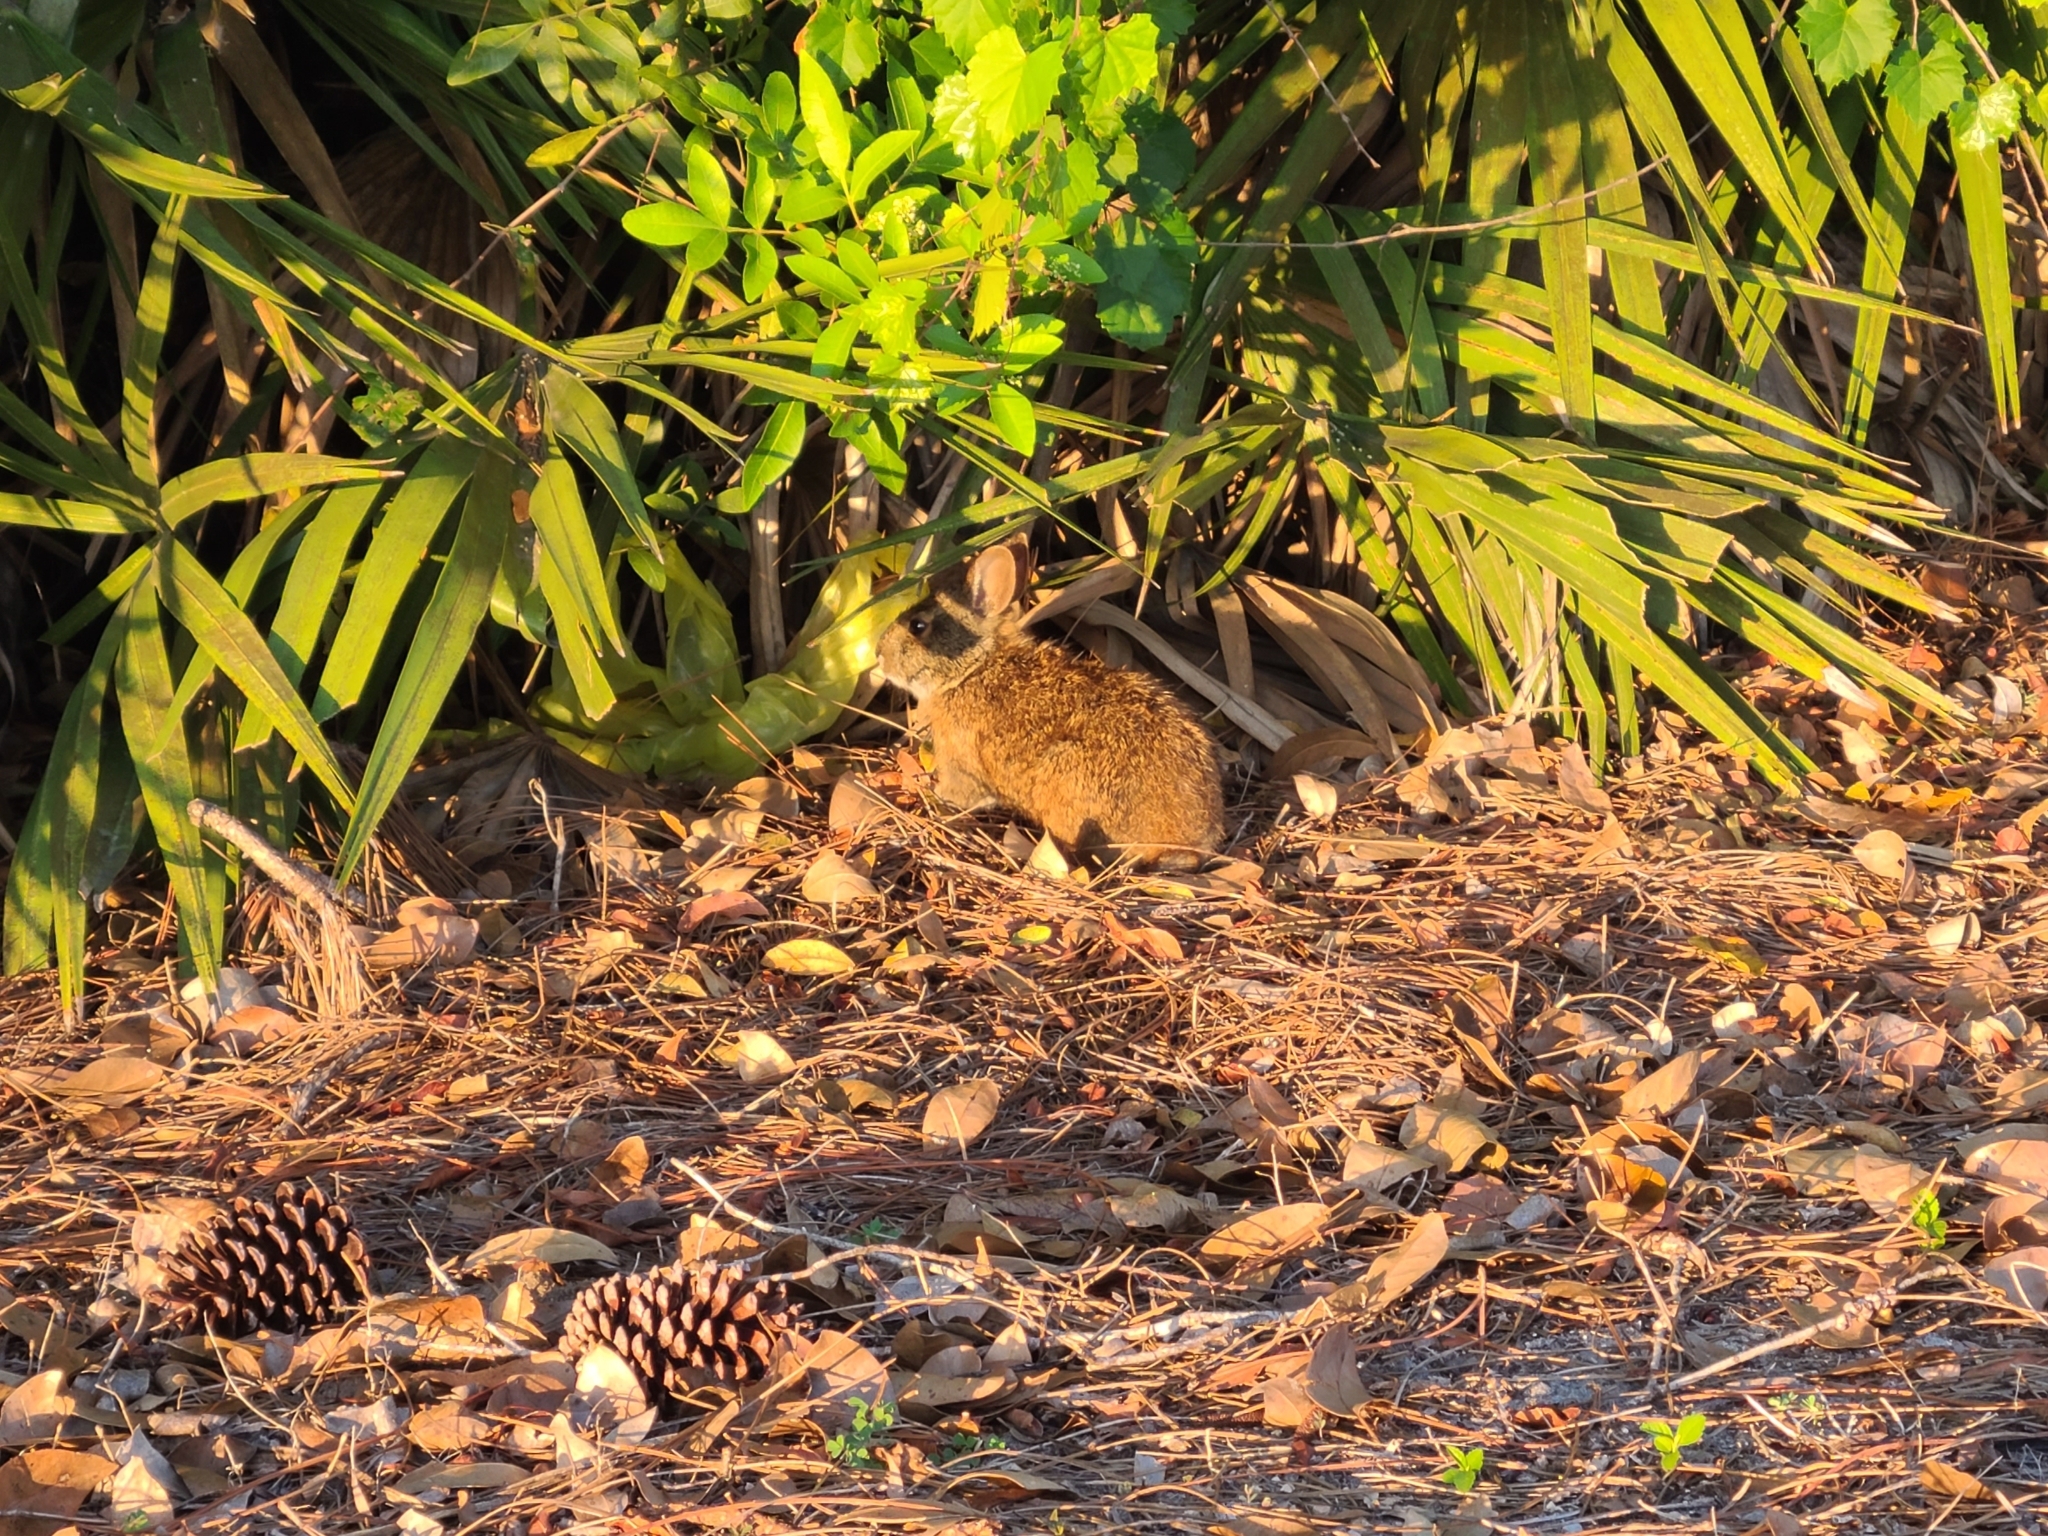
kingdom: Animalia
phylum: Chordata
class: Mammalia
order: Lagomorpha
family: Leporidae
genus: Sylvilagus
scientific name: Sylvilagus palustris
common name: Marsh rabbit
